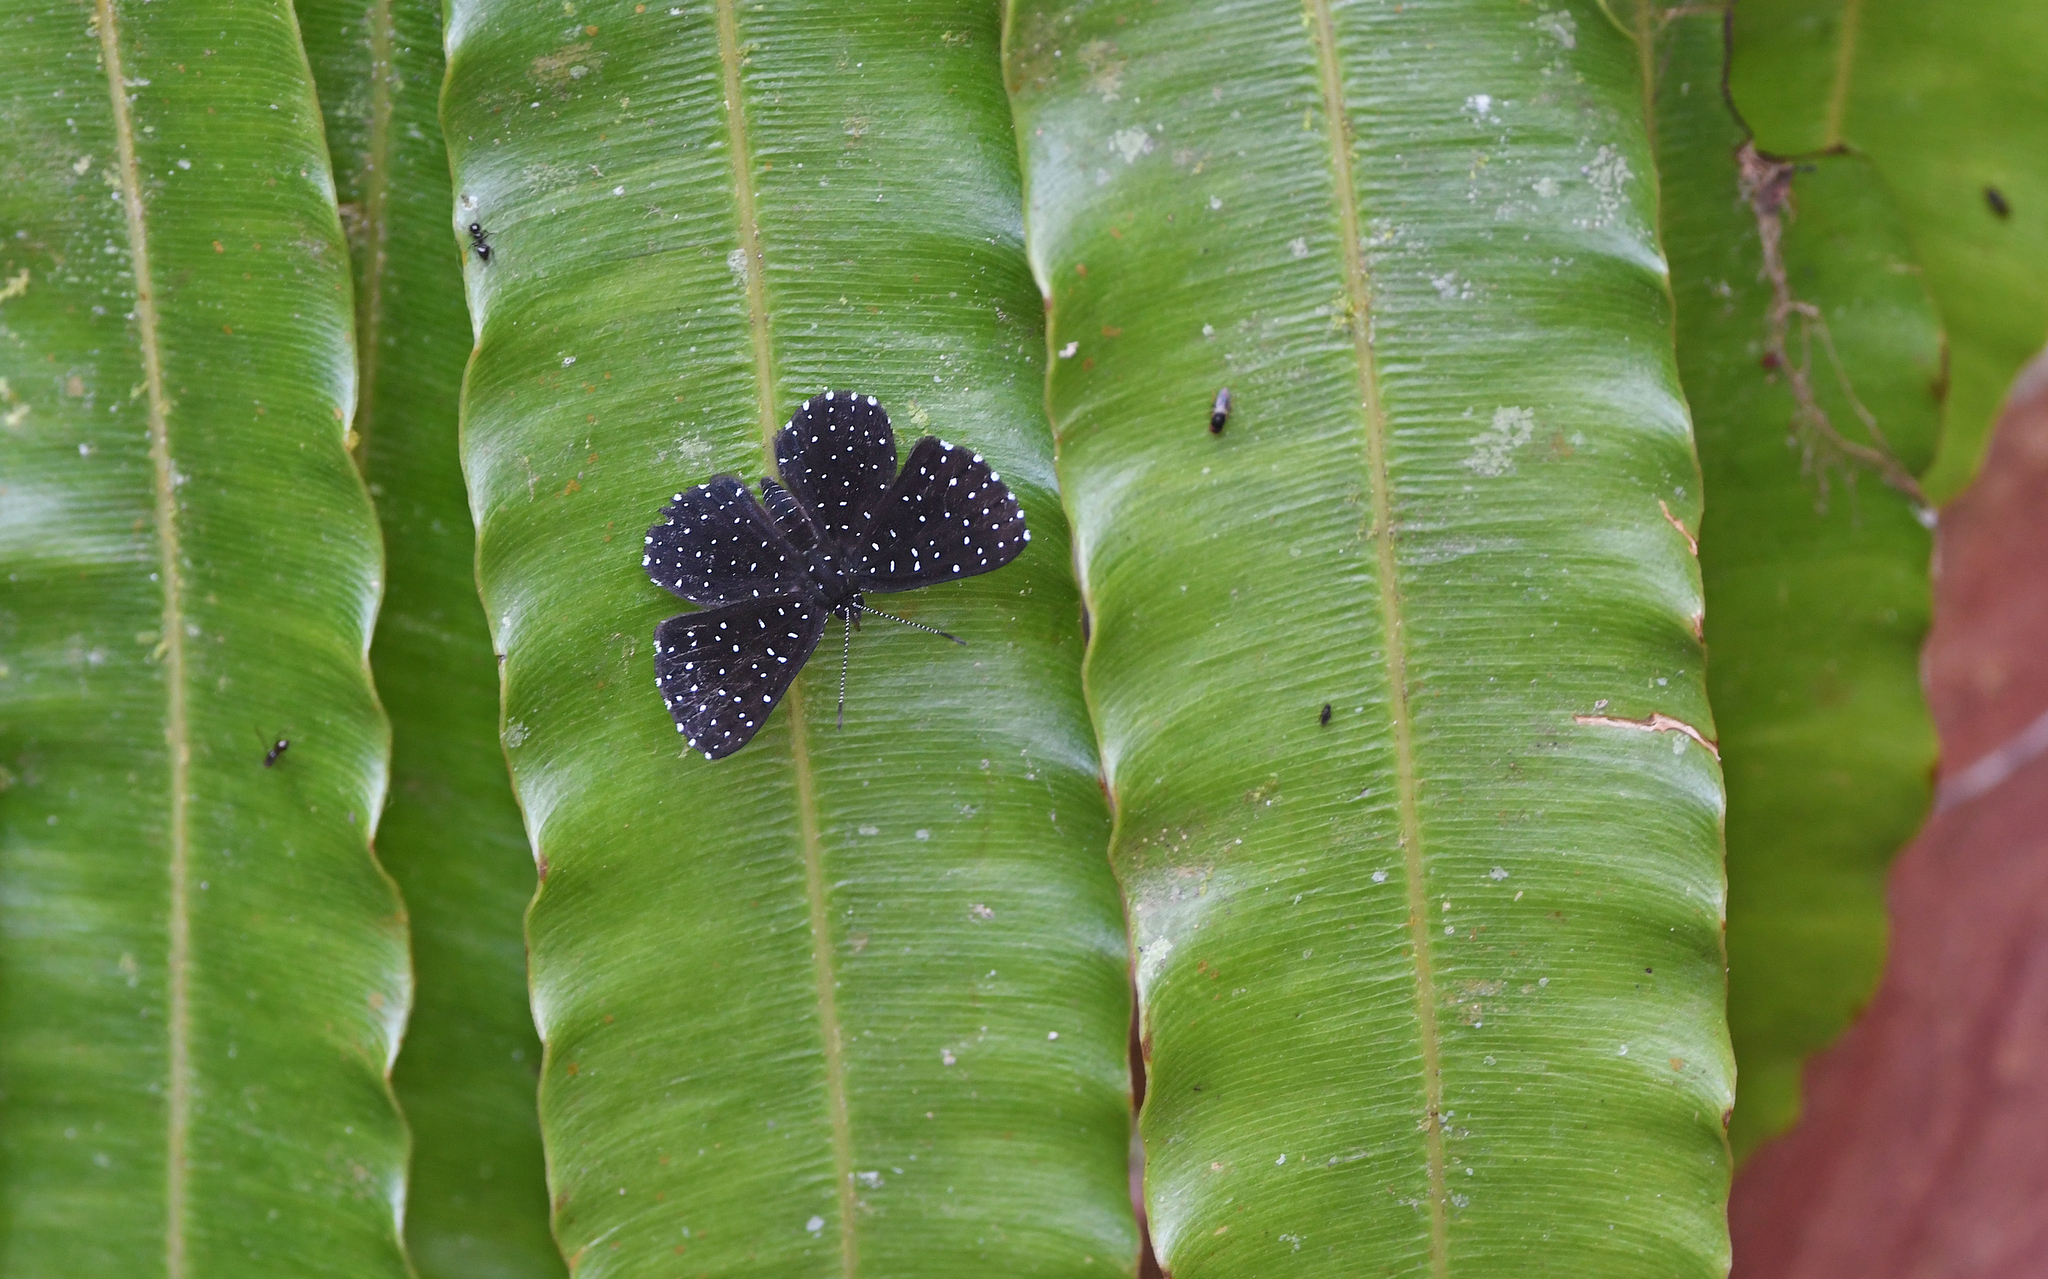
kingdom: Animalia
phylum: Arthropoda
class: Insecta
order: Lepidoptera
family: Riodinidae
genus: Echydna
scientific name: Echydna punctata
